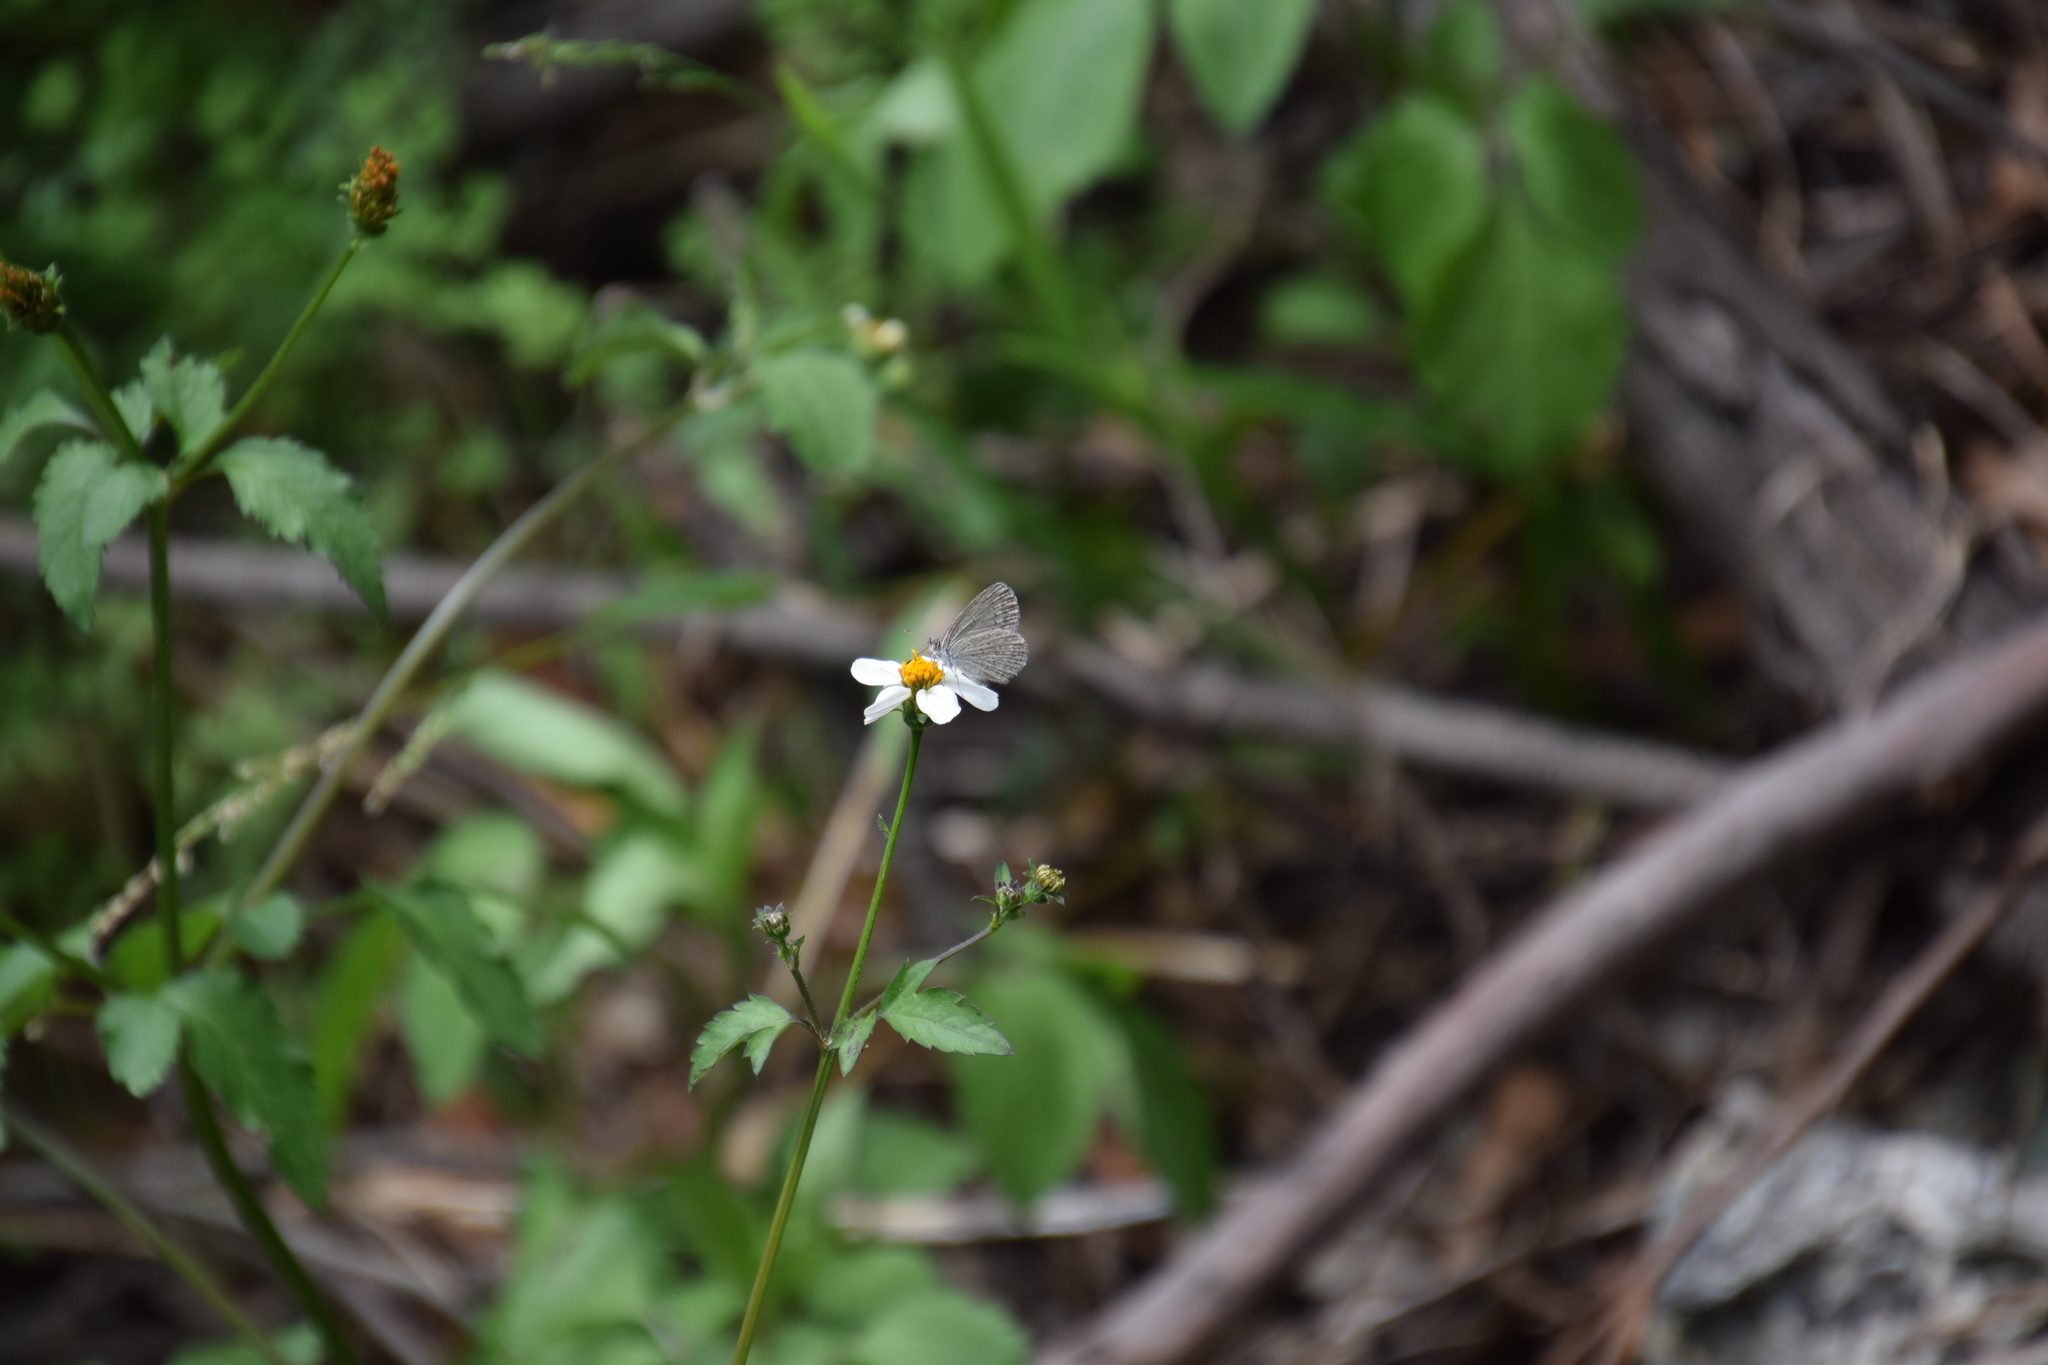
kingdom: Animalia
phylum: Arthropoda
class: Insecta
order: Lepidoptera
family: Lycaenidae
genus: Zizina
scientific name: Zizina labradus
